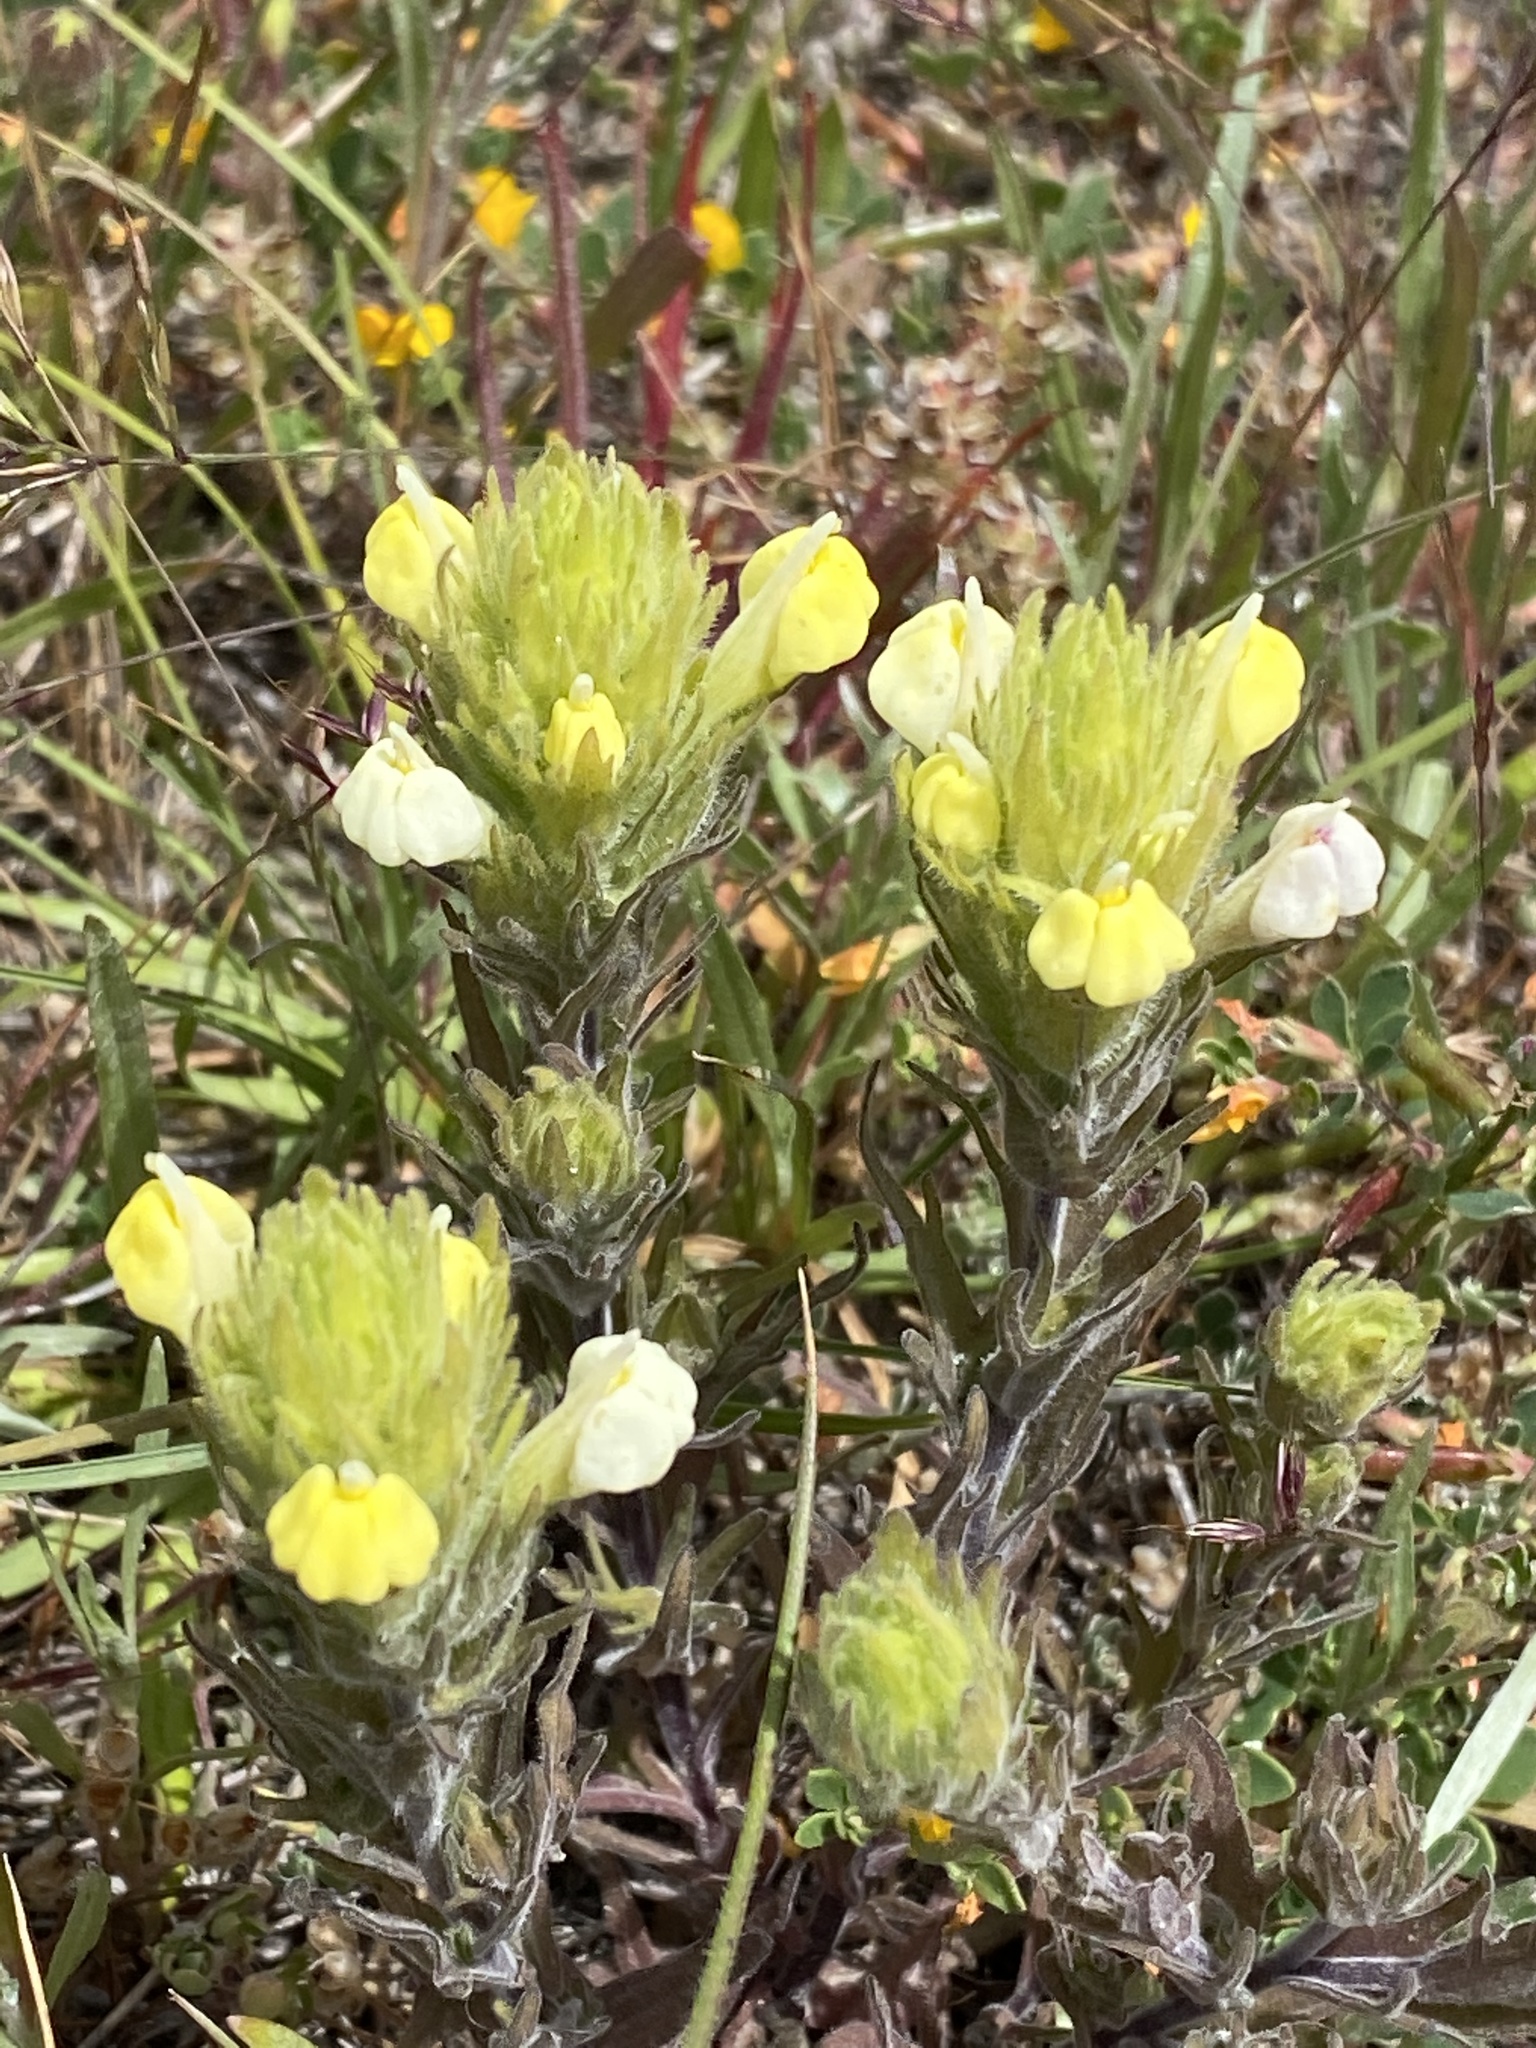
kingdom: Plantae
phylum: Tracheophyta
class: Magnoliopsida
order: Lamiales
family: Orobanchaceae
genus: Castilleja
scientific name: Castilleja rubicundula
